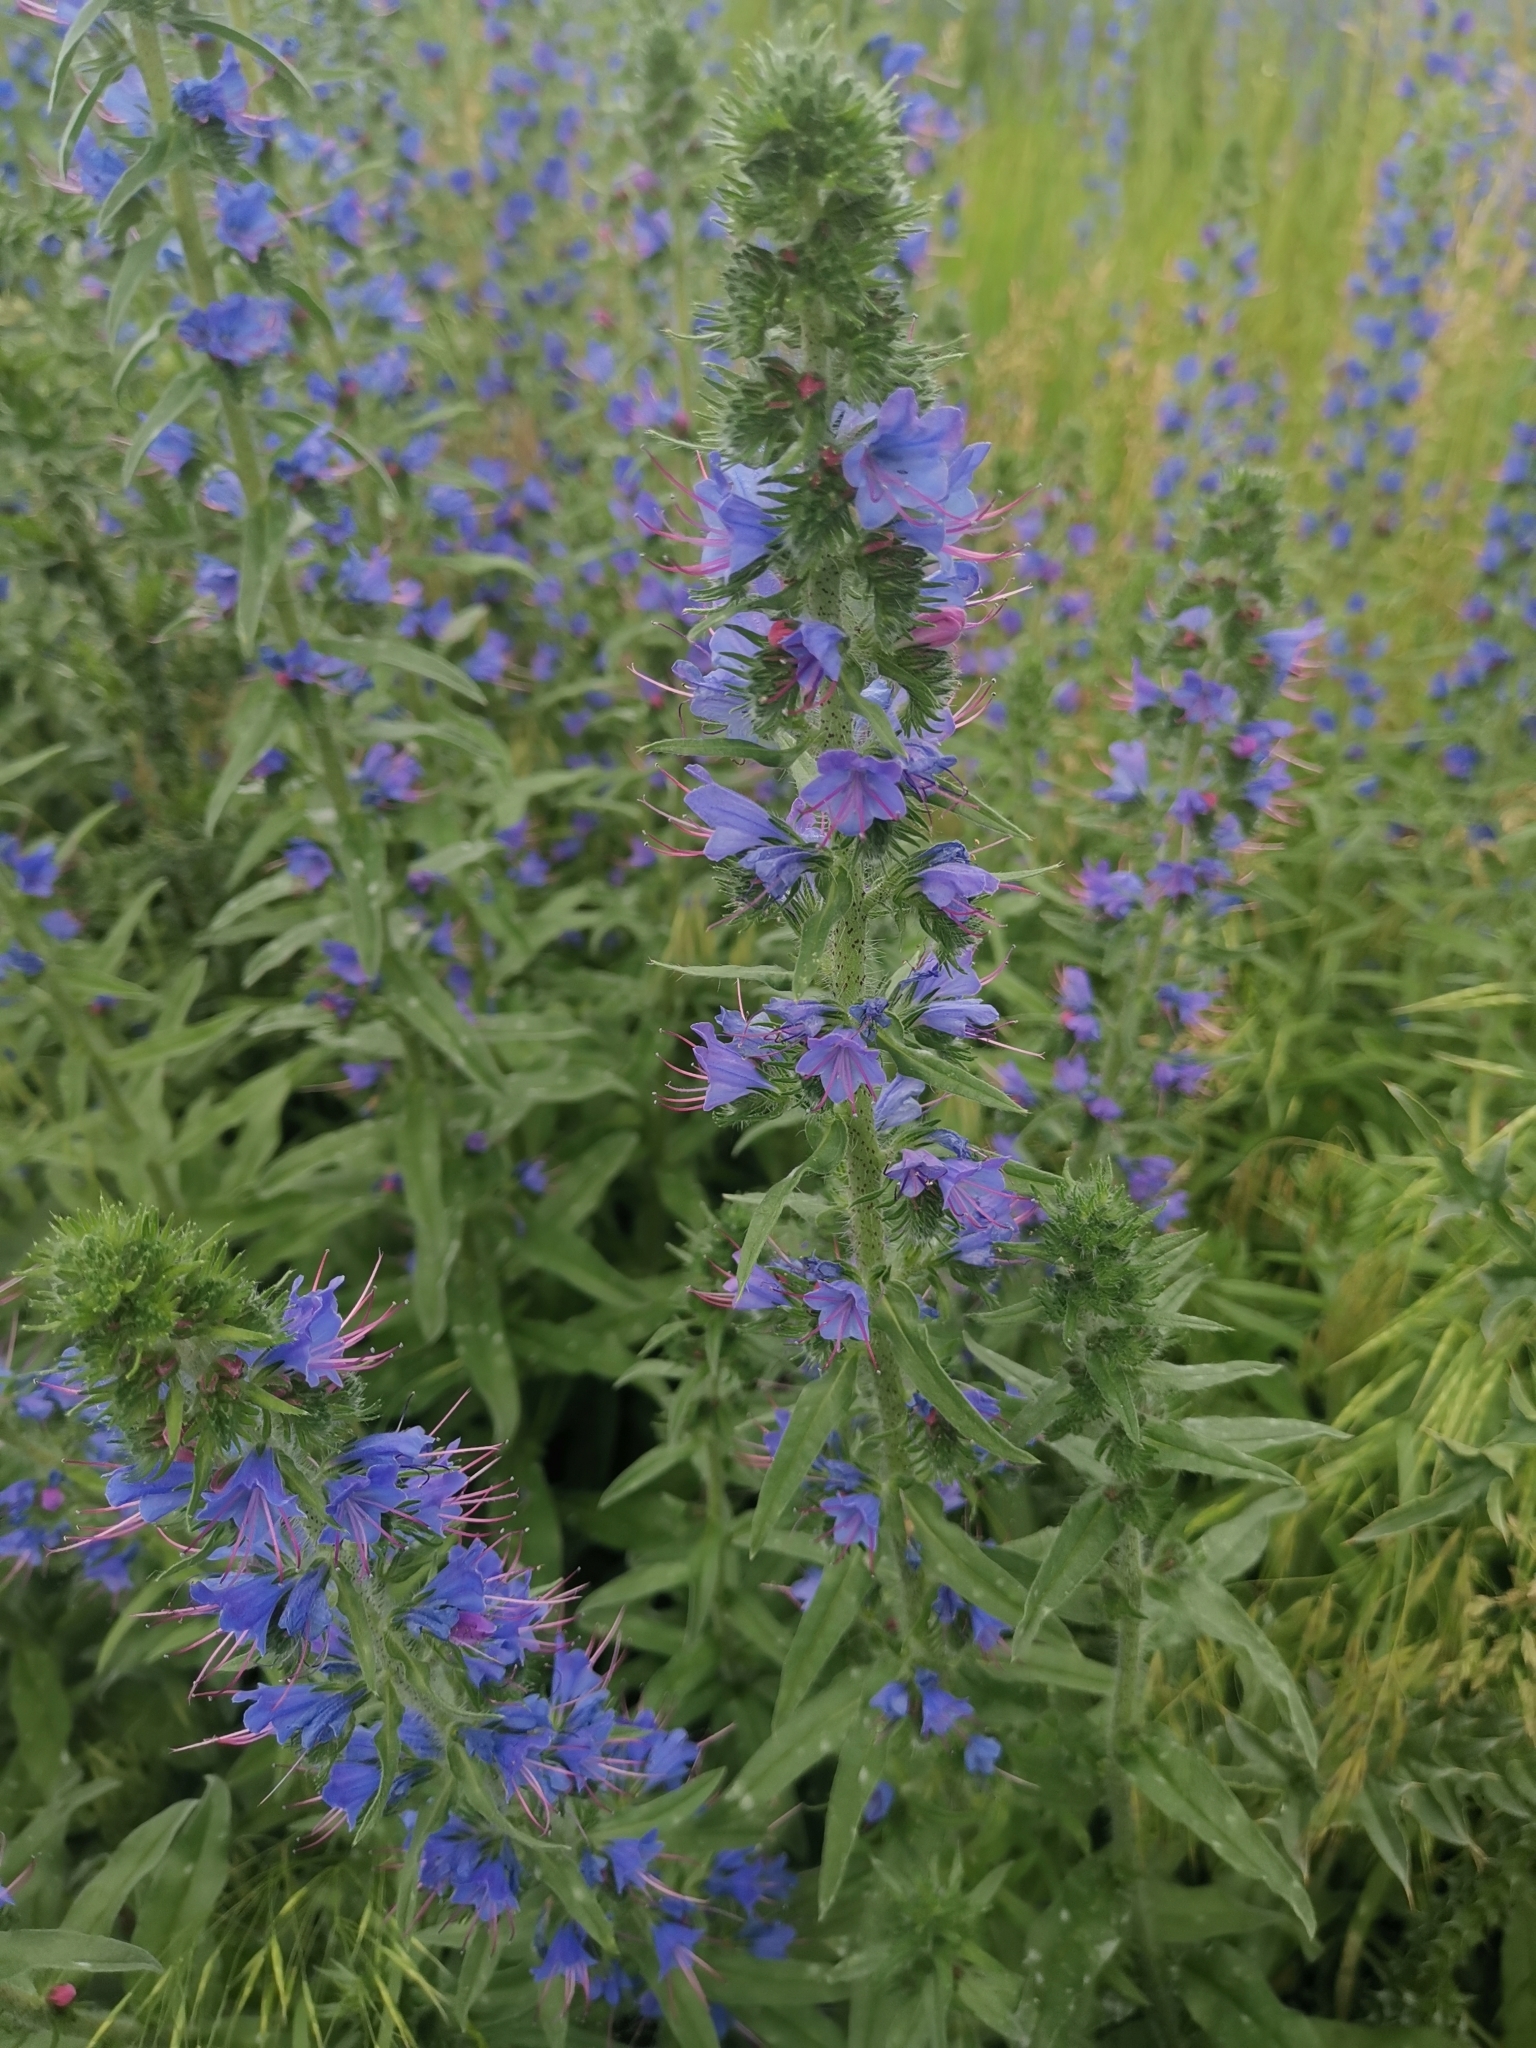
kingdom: Plantae
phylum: Tracheophyta
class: Magnoliopsida
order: Boraginales
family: Boraginaceae
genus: Echium
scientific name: Echium vulgare
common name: Common viper's bugloss
